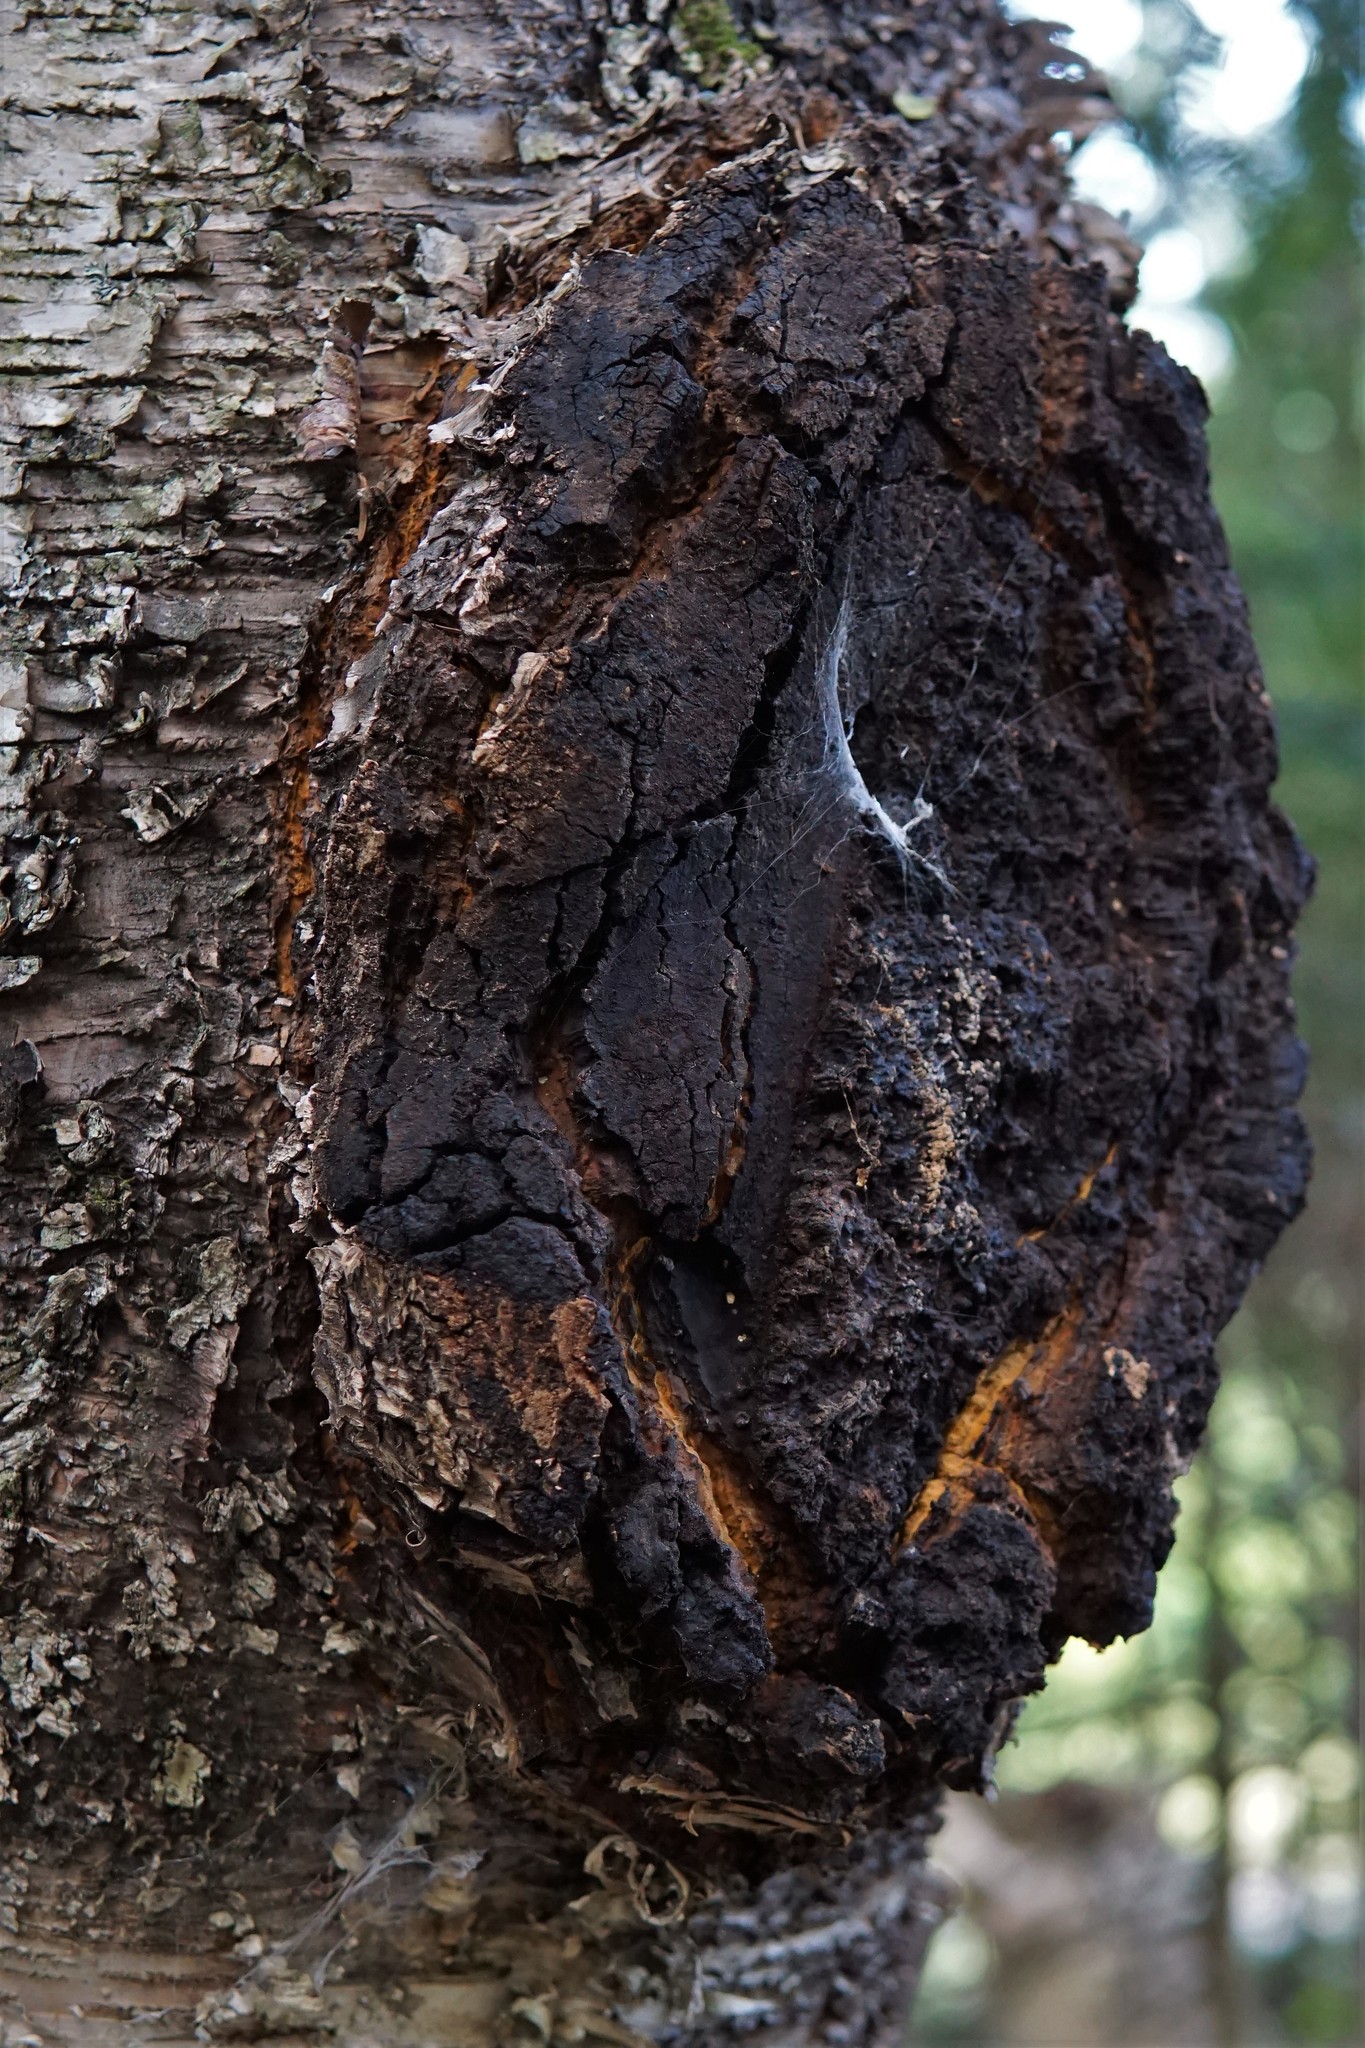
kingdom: Fungi
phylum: Basidiomycota
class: Agaricomycetes
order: Hymenochaetales
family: Hymenochaetaceae
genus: Inonotus
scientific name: Inonotus obliquus
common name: Chaga
